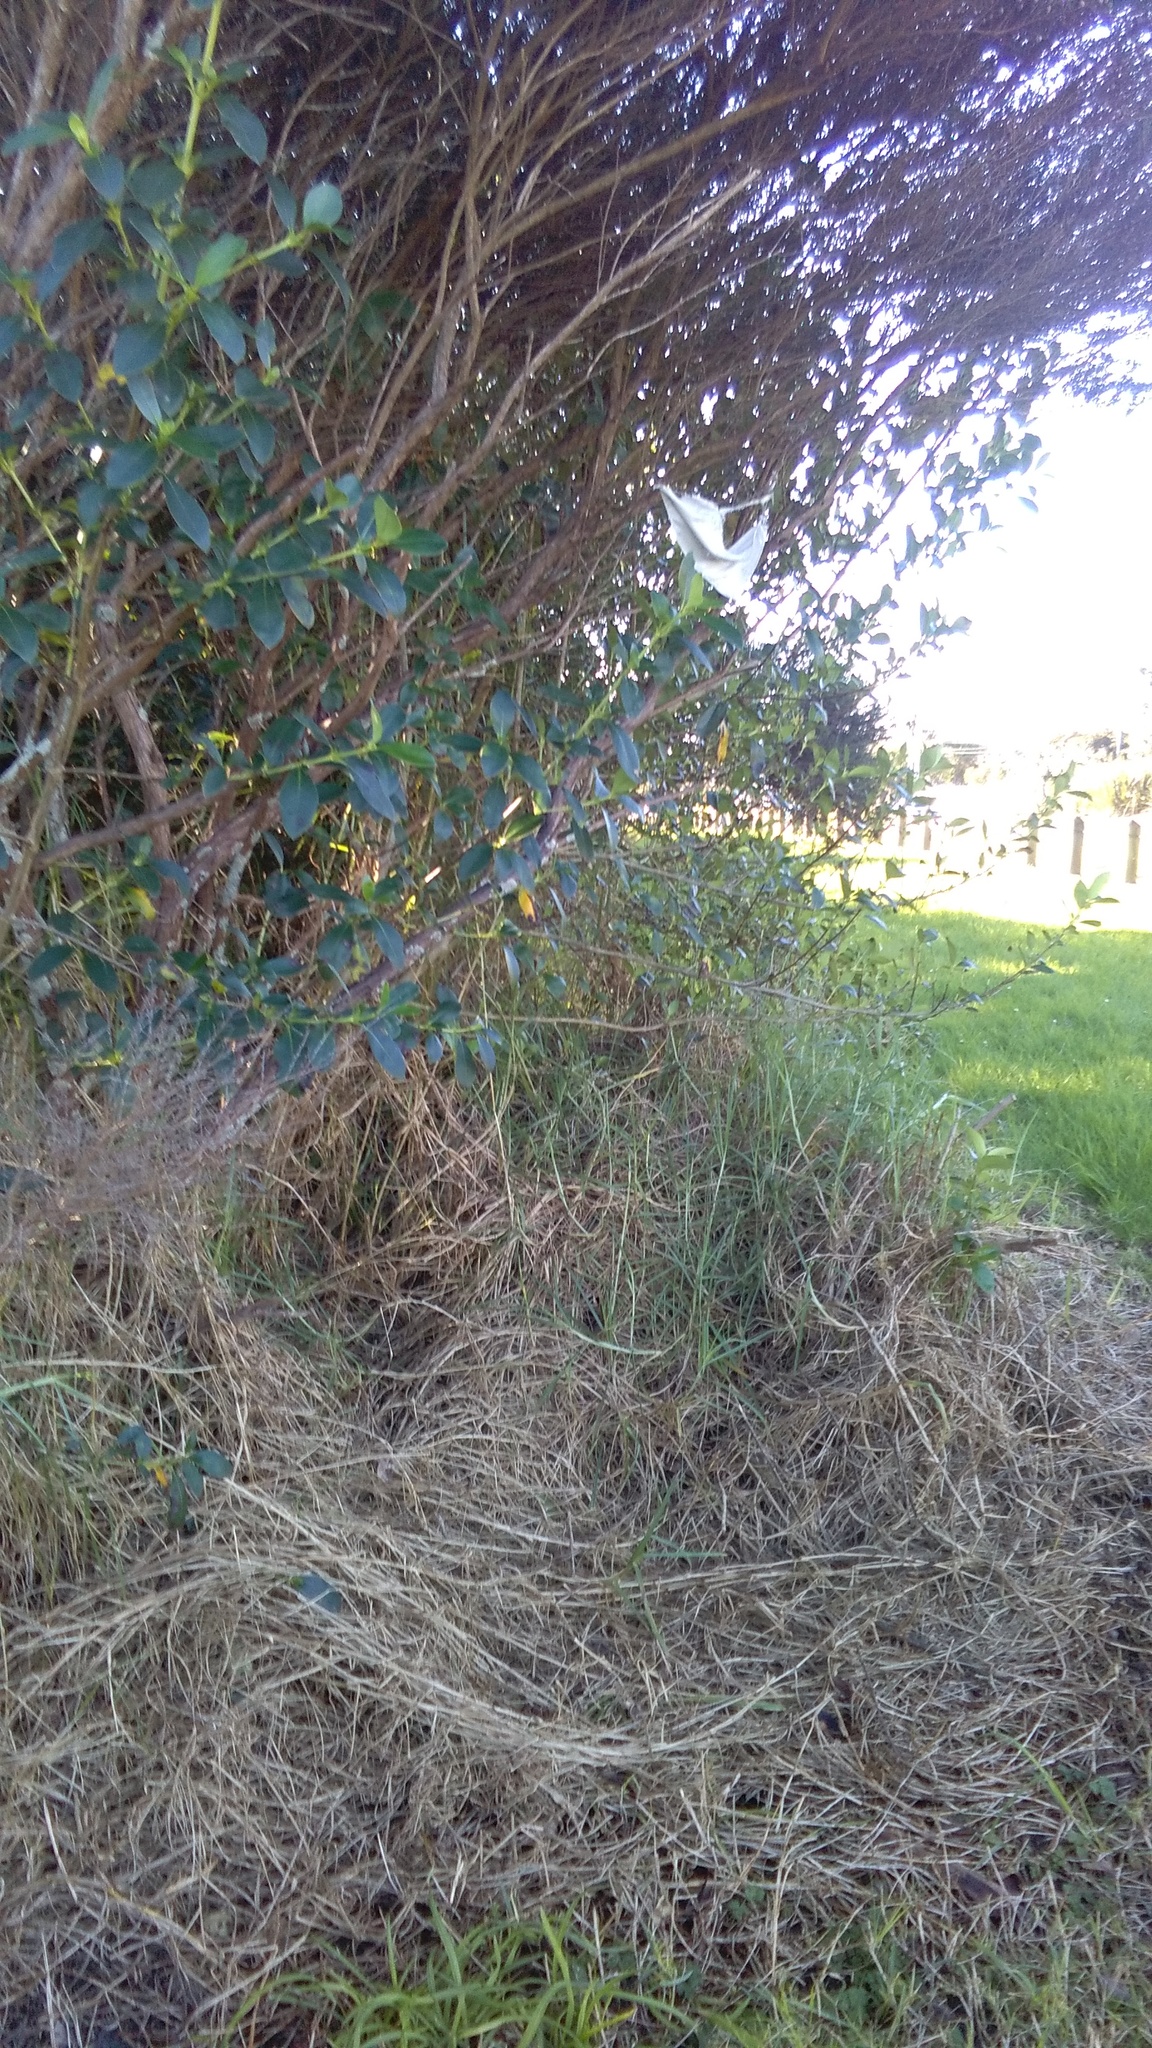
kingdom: Plantae
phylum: Tracheophyta
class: Liliopsida
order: Poales
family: Poaceae
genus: Cenchrus
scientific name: Cenchrus clandestinus
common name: Kikuyugrass
